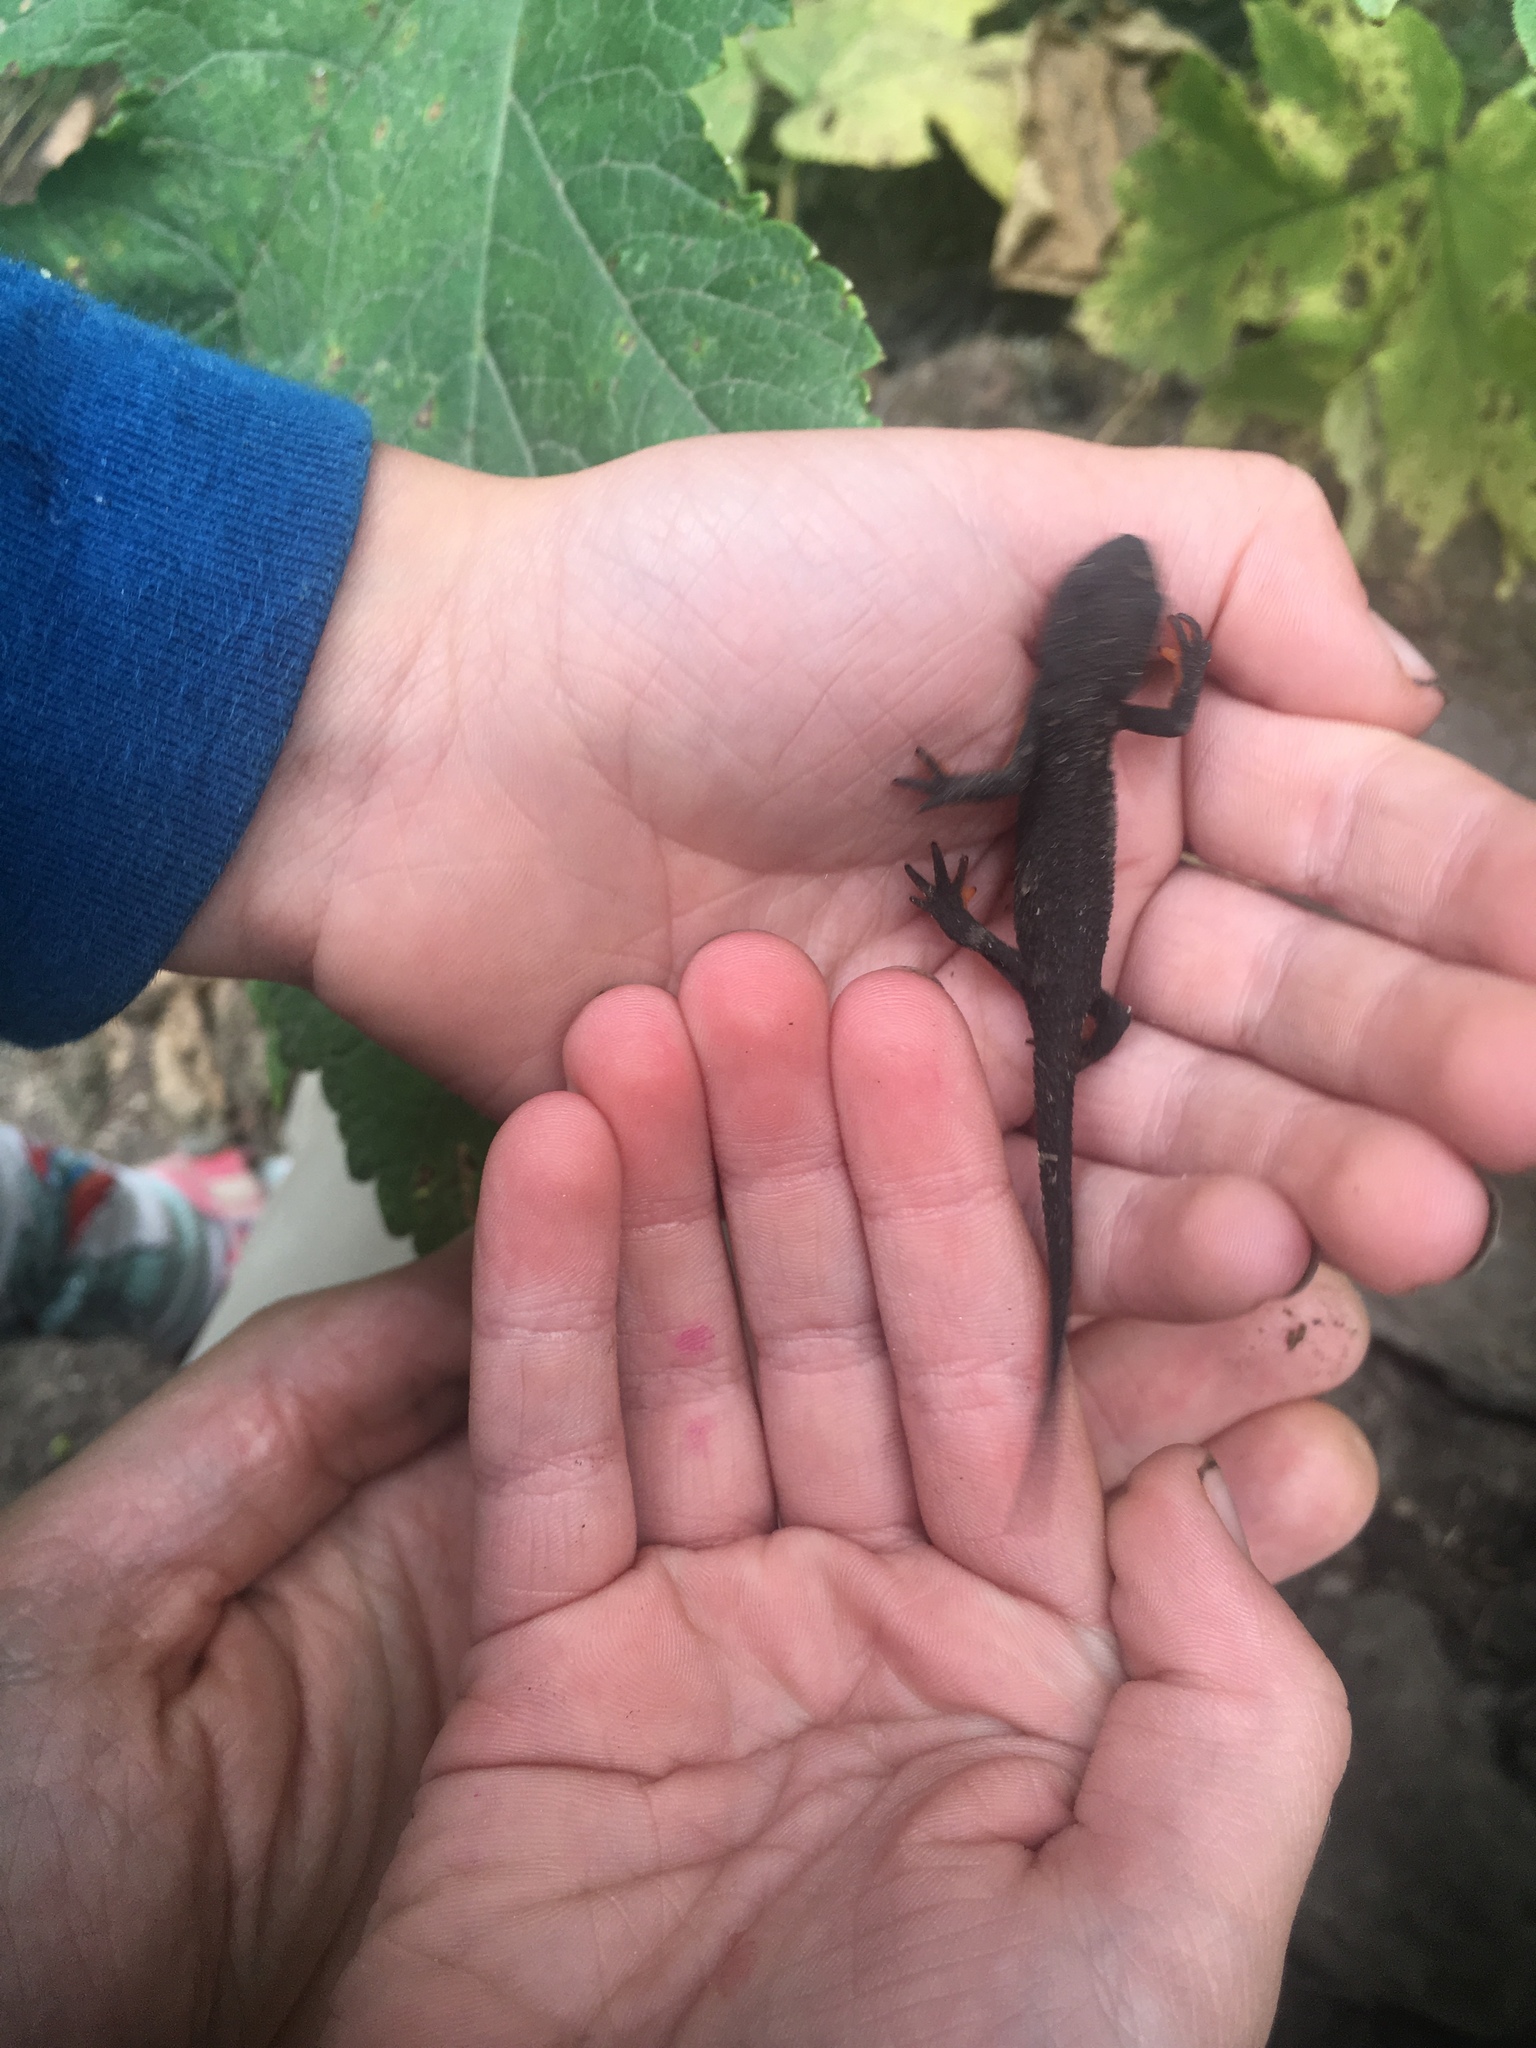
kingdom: Animalia
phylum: Chordata
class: Amphibia
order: Caudata
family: Salamandridae
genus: Taricha
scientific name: Taricha granulosa
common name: Roughskin newt
